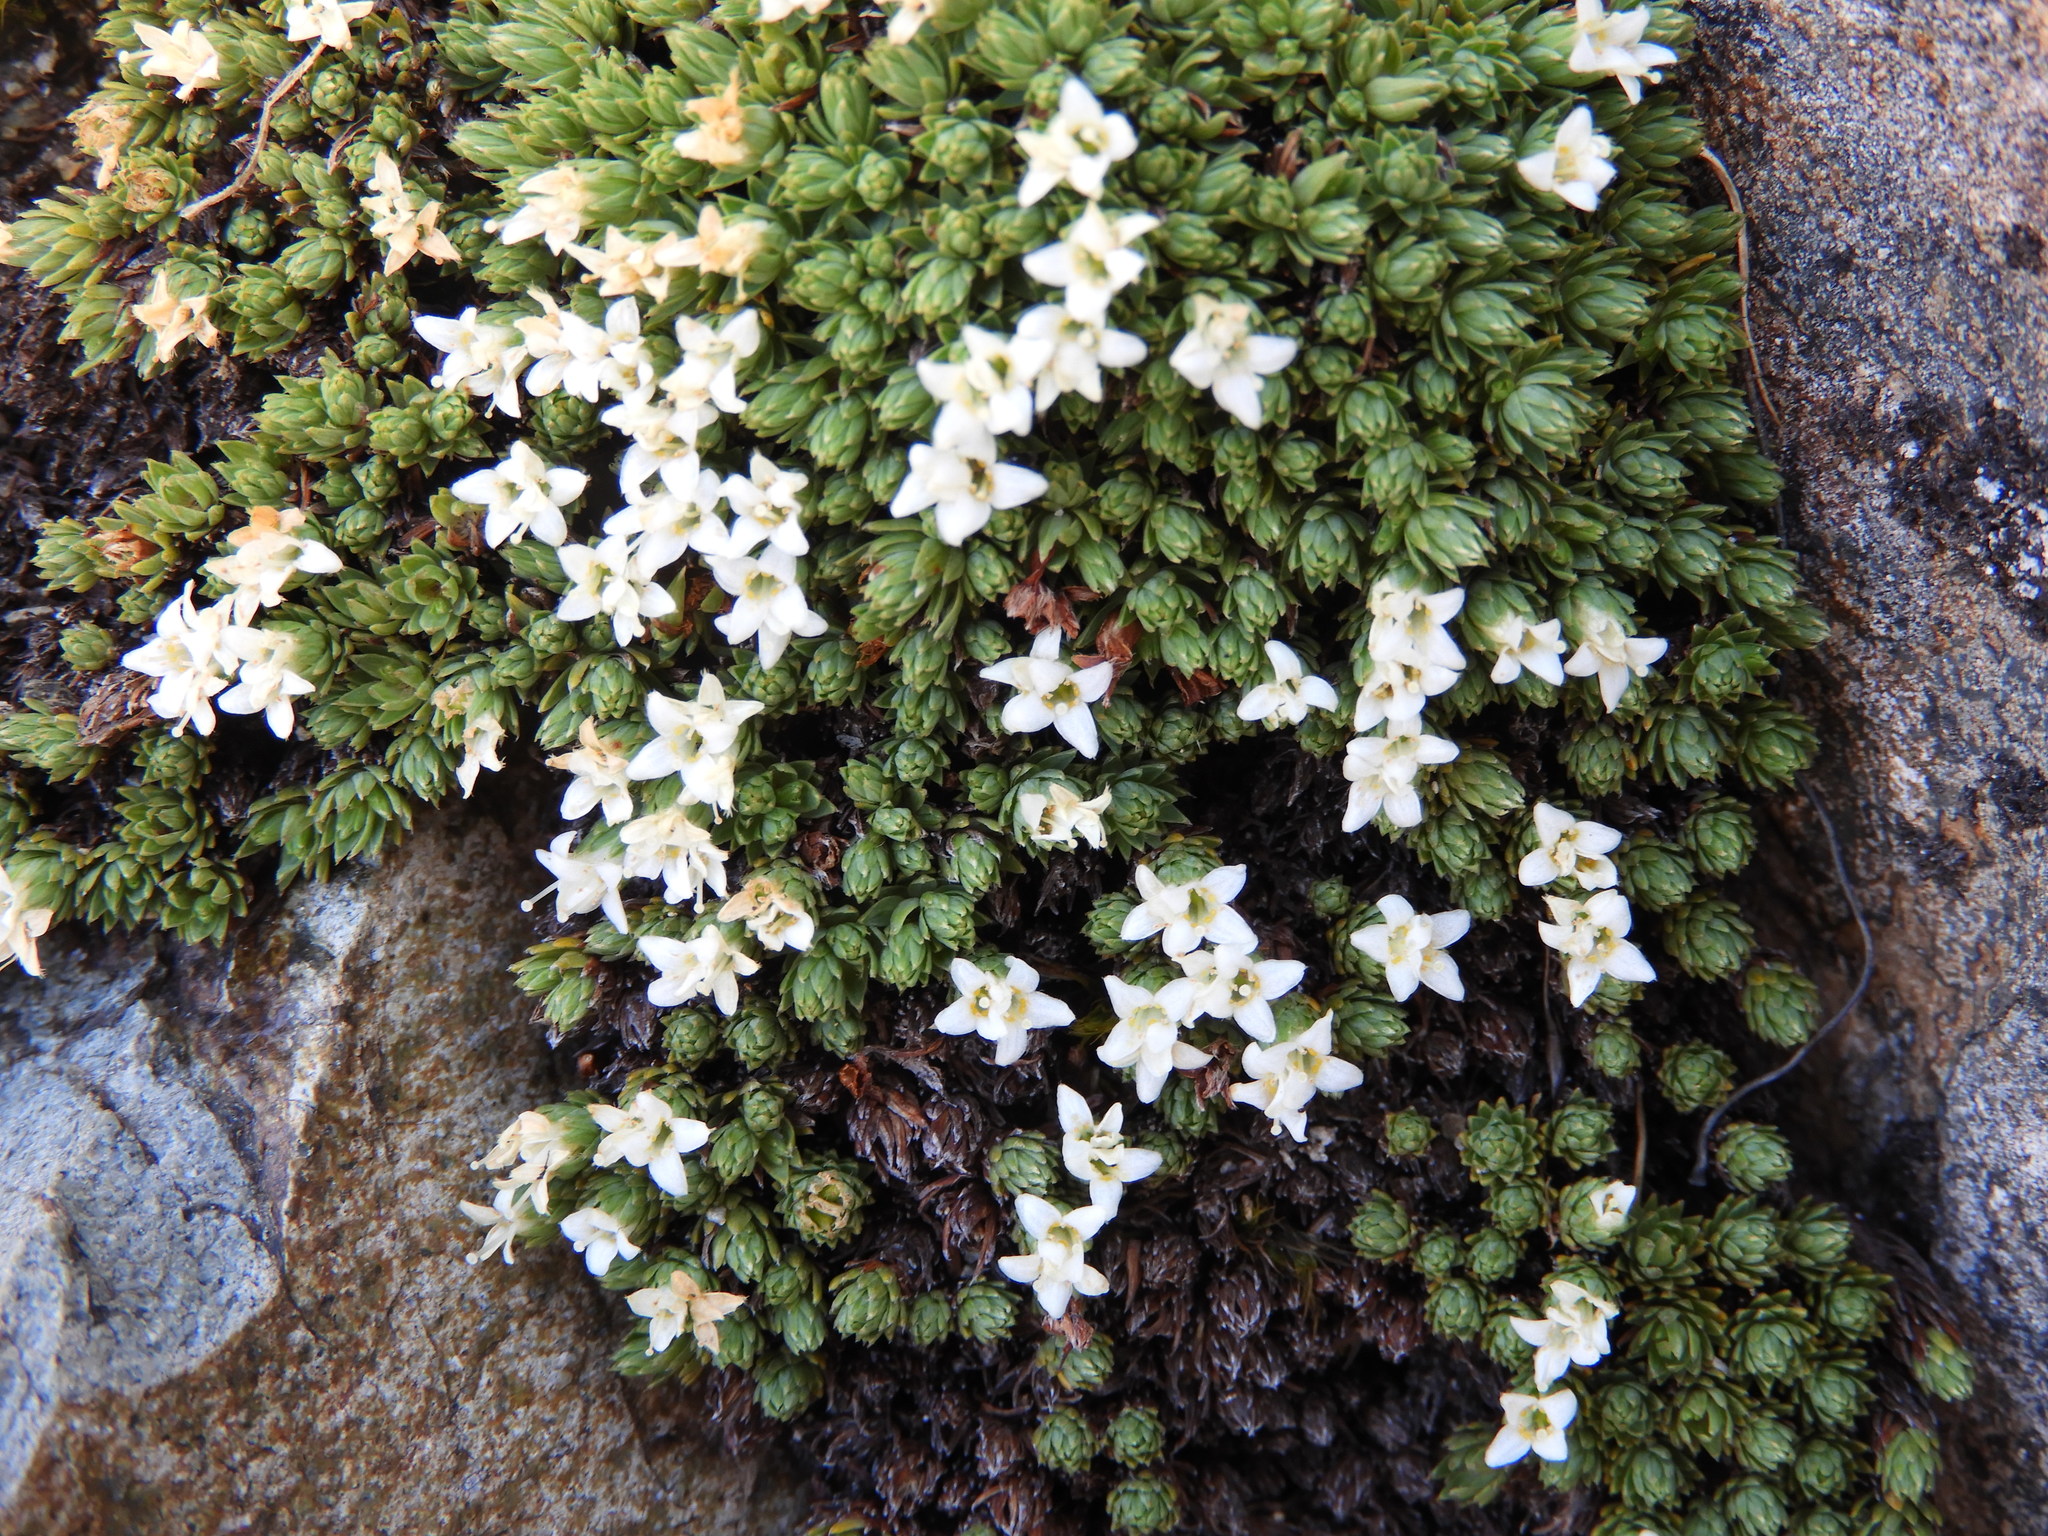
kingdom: Plantae
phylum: Tracheophyta
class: Magnoliopsida
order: Malvales
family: Thymelaeaceae
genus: Kelleria
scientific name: Kelleria croizatii
